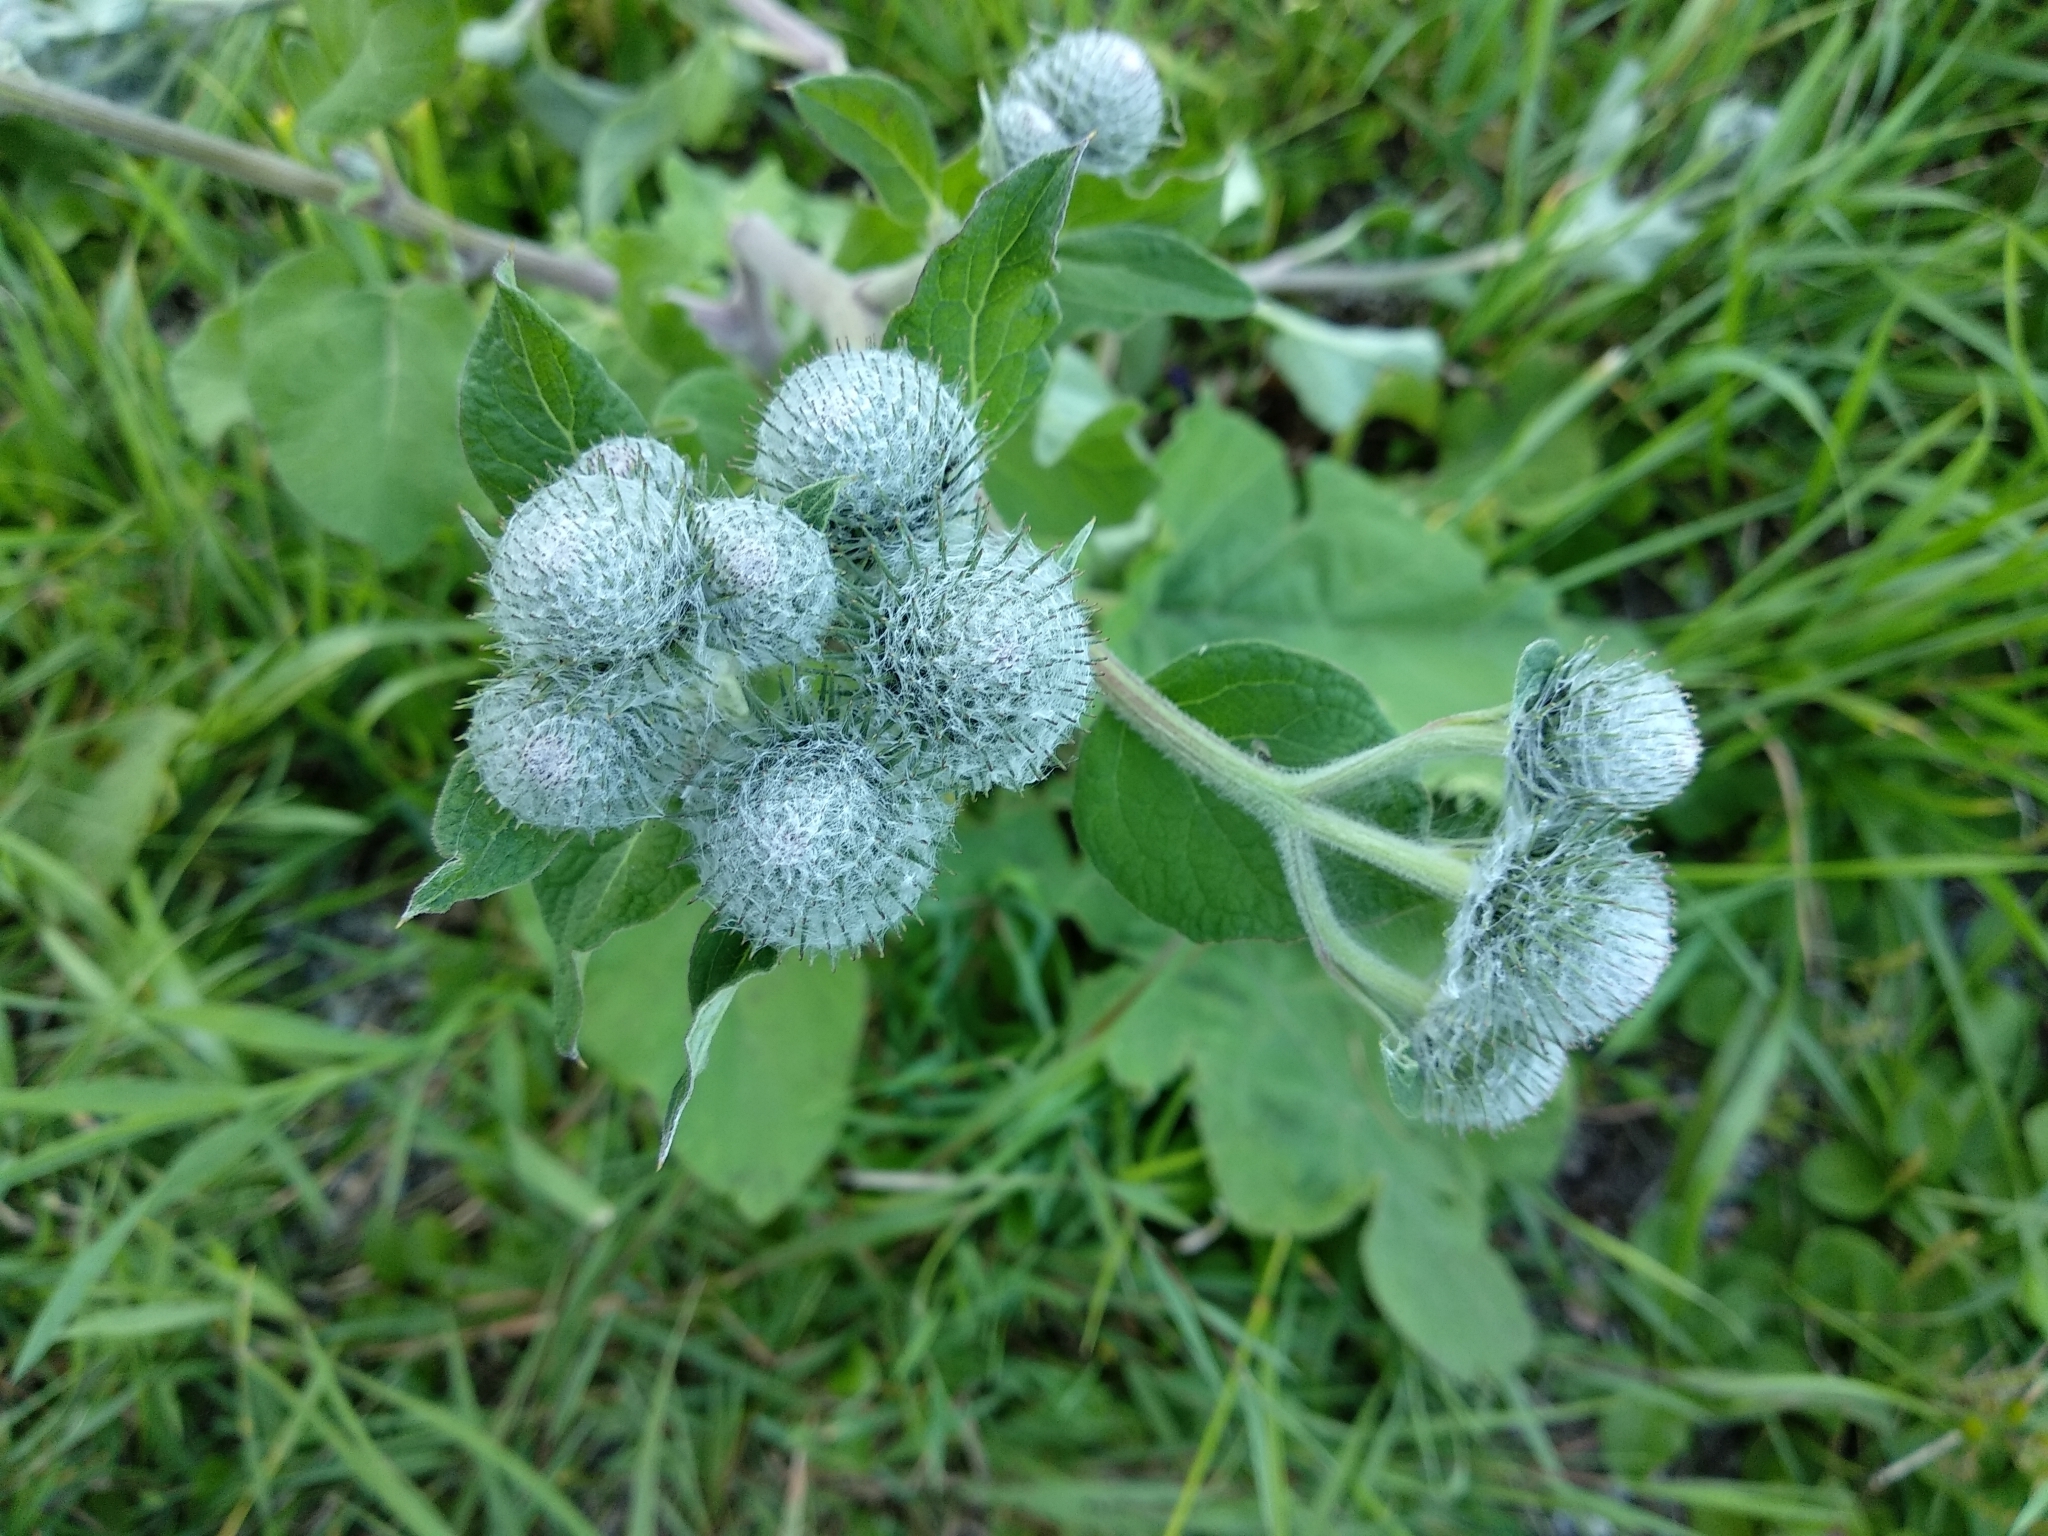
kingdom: Plantae
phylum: Tracheophyta
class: Magnoliopsida
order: Asterales
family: Asteraceae
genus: Arctium
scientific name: Arctium tomentosum
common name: Woolly burdock
